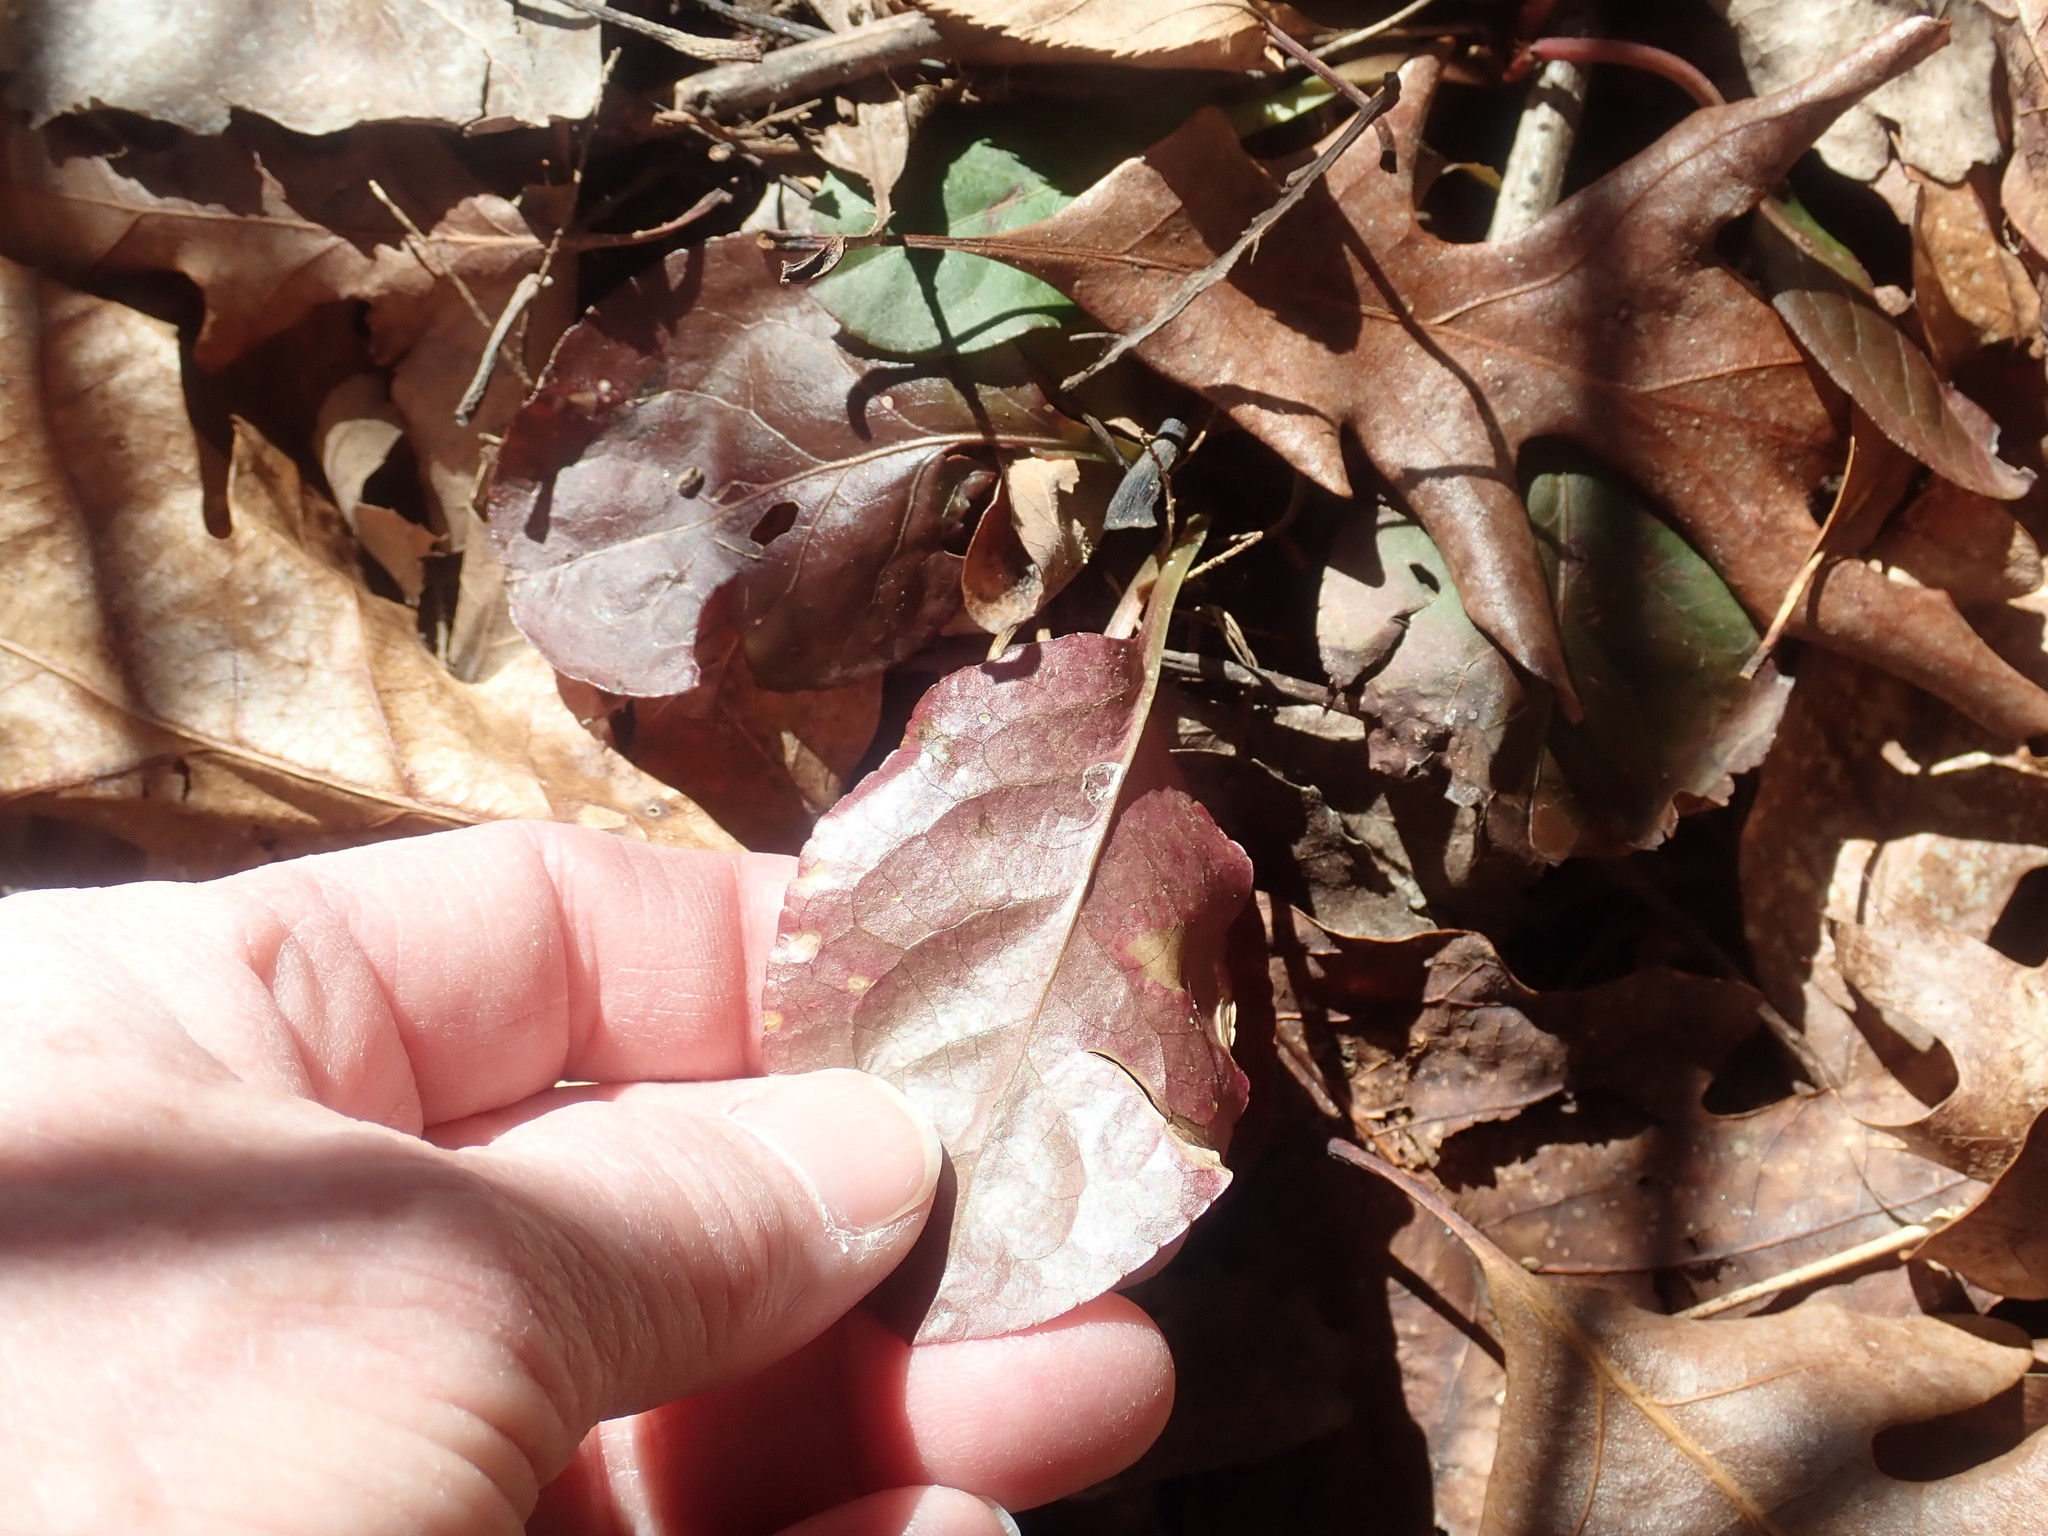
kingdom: Plantae
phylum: Tracheophyta
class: Magnoliopsida
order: Ericales
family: Ericaceae
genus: Pyrola
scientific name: Pyrola elliptica
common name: Shinleaf
